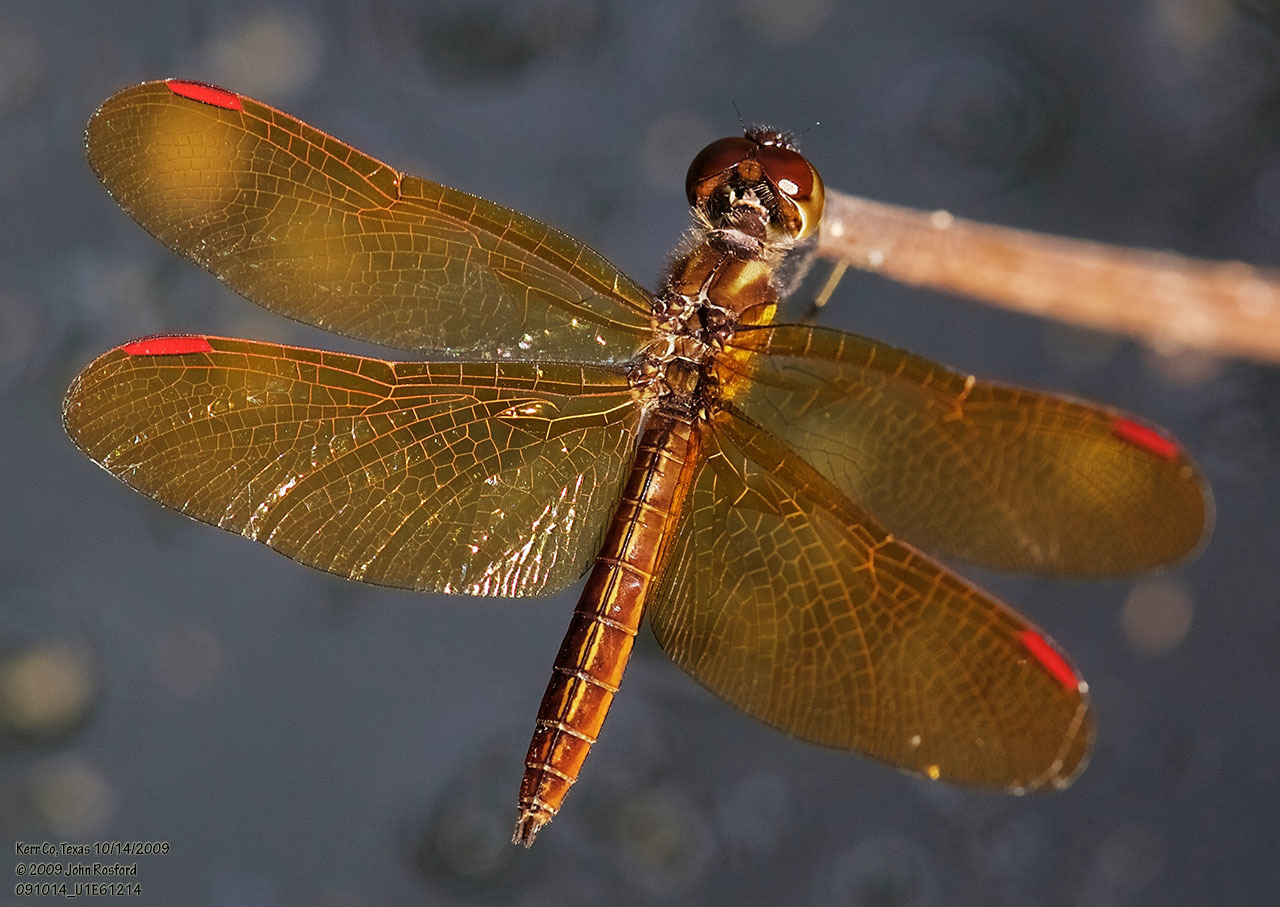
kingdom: Animalia
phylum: Arthropoda
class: Insecta
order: Odonata
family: Libellulidae
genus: Perithemis
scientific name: Perithemis domitia
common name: Slough amberwing
